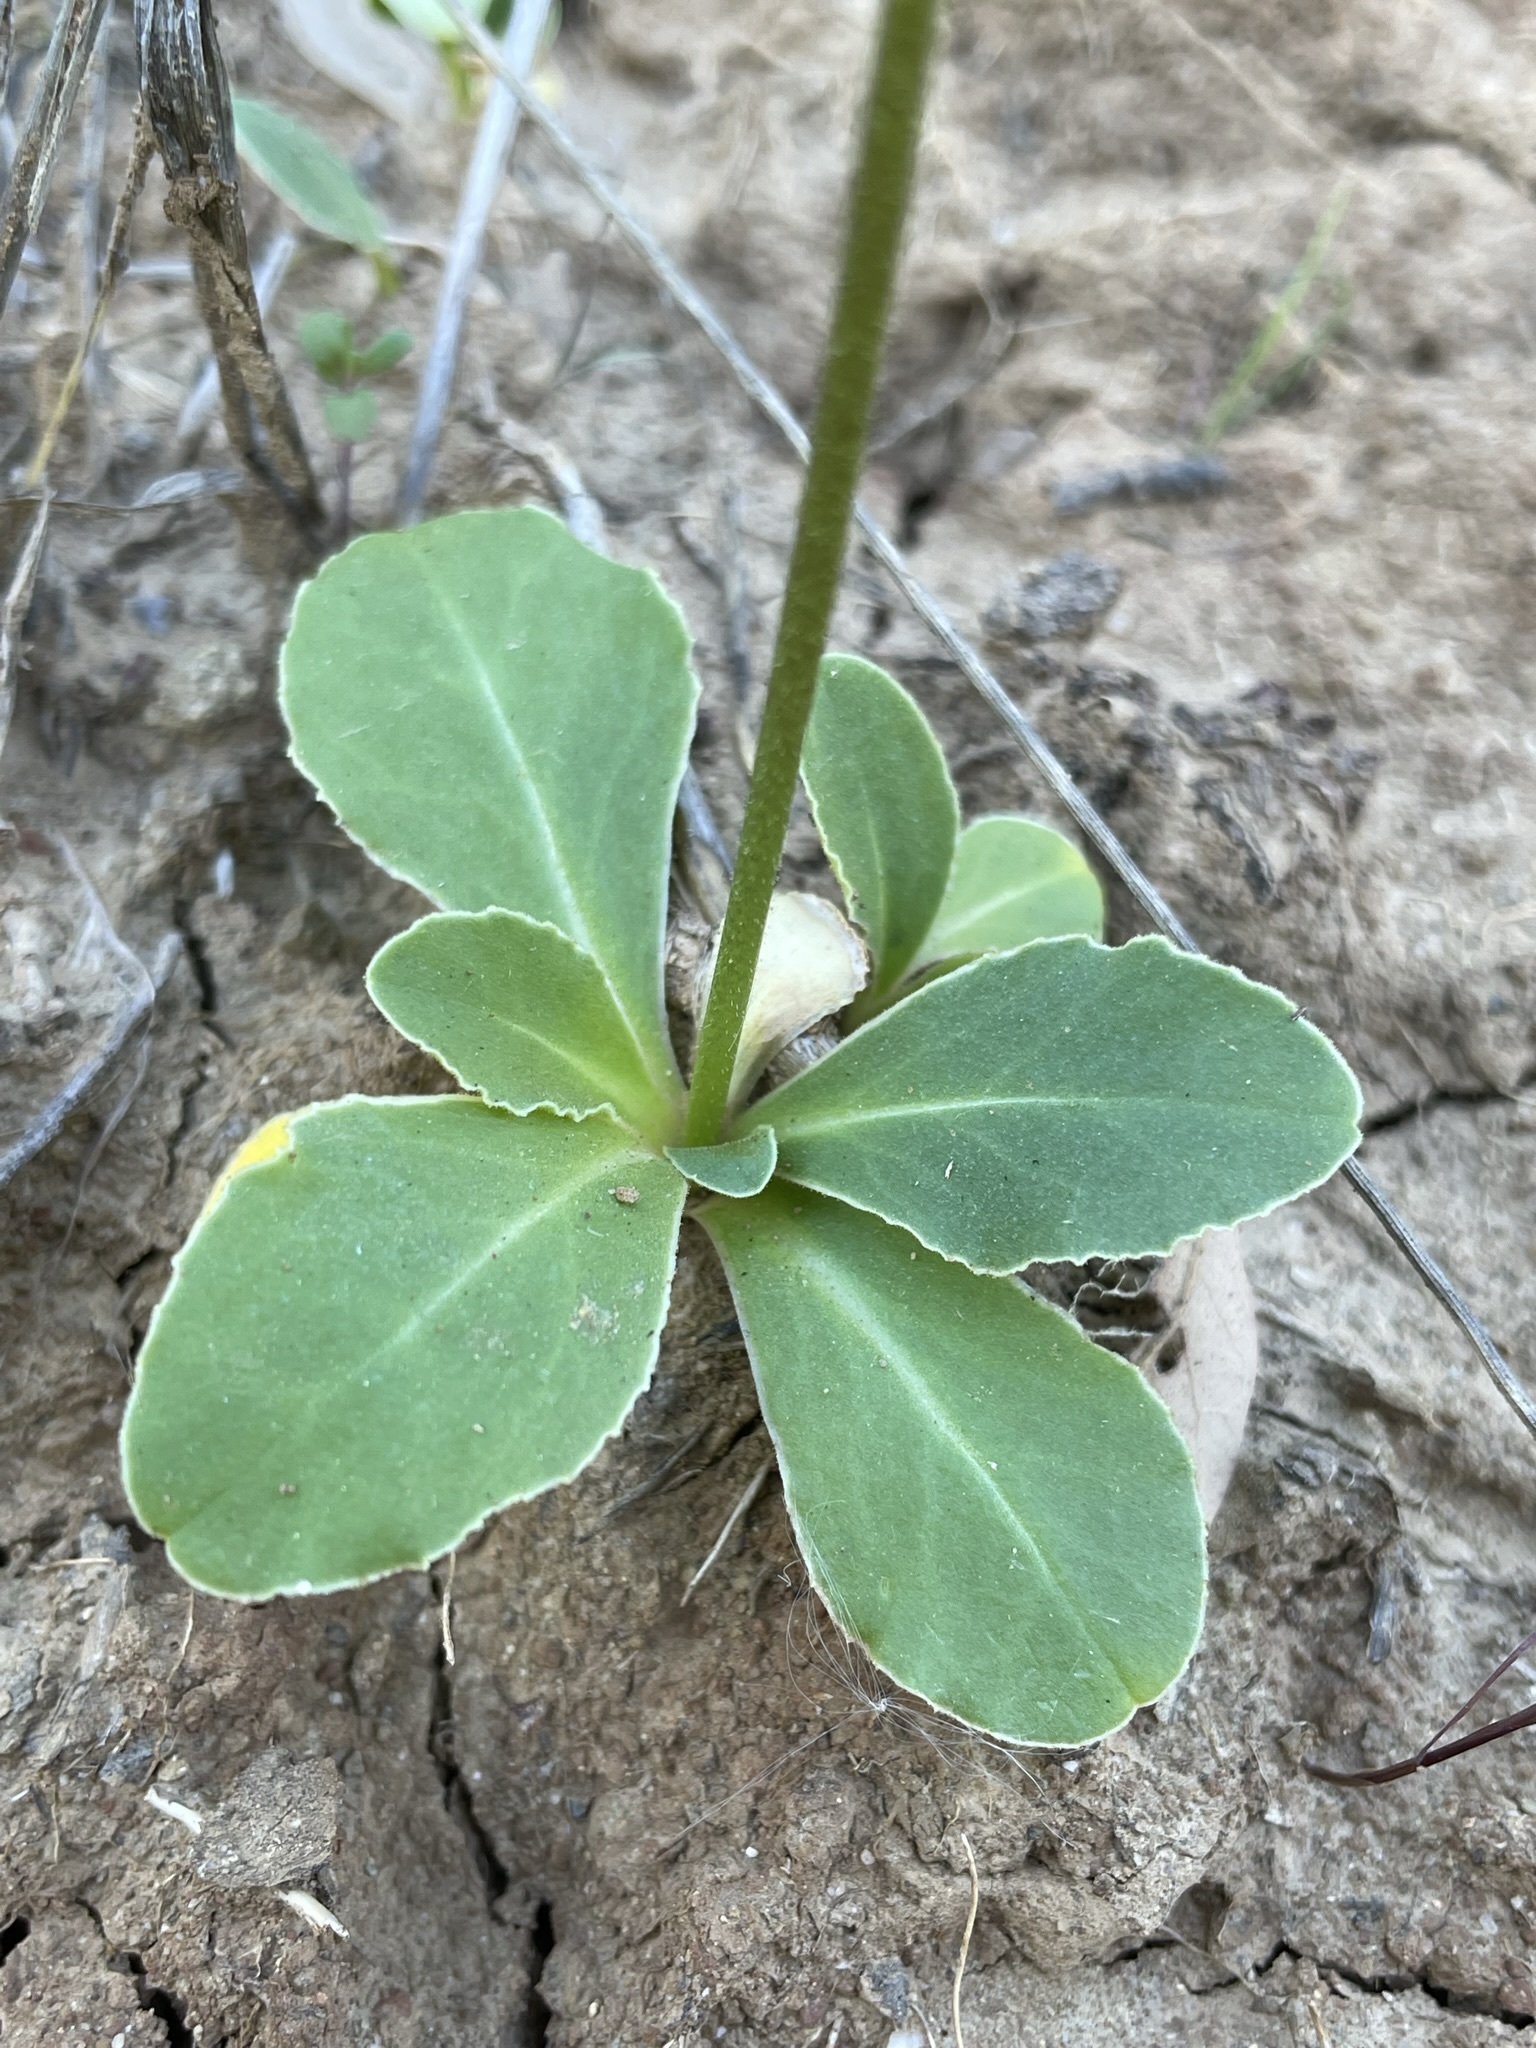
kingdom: Plantae
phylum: Tracheophyta
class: Magnoliopsida
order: Ericales
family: Primulaceae
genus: Dodecatheon
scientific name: Dodecatheon clevelandii
